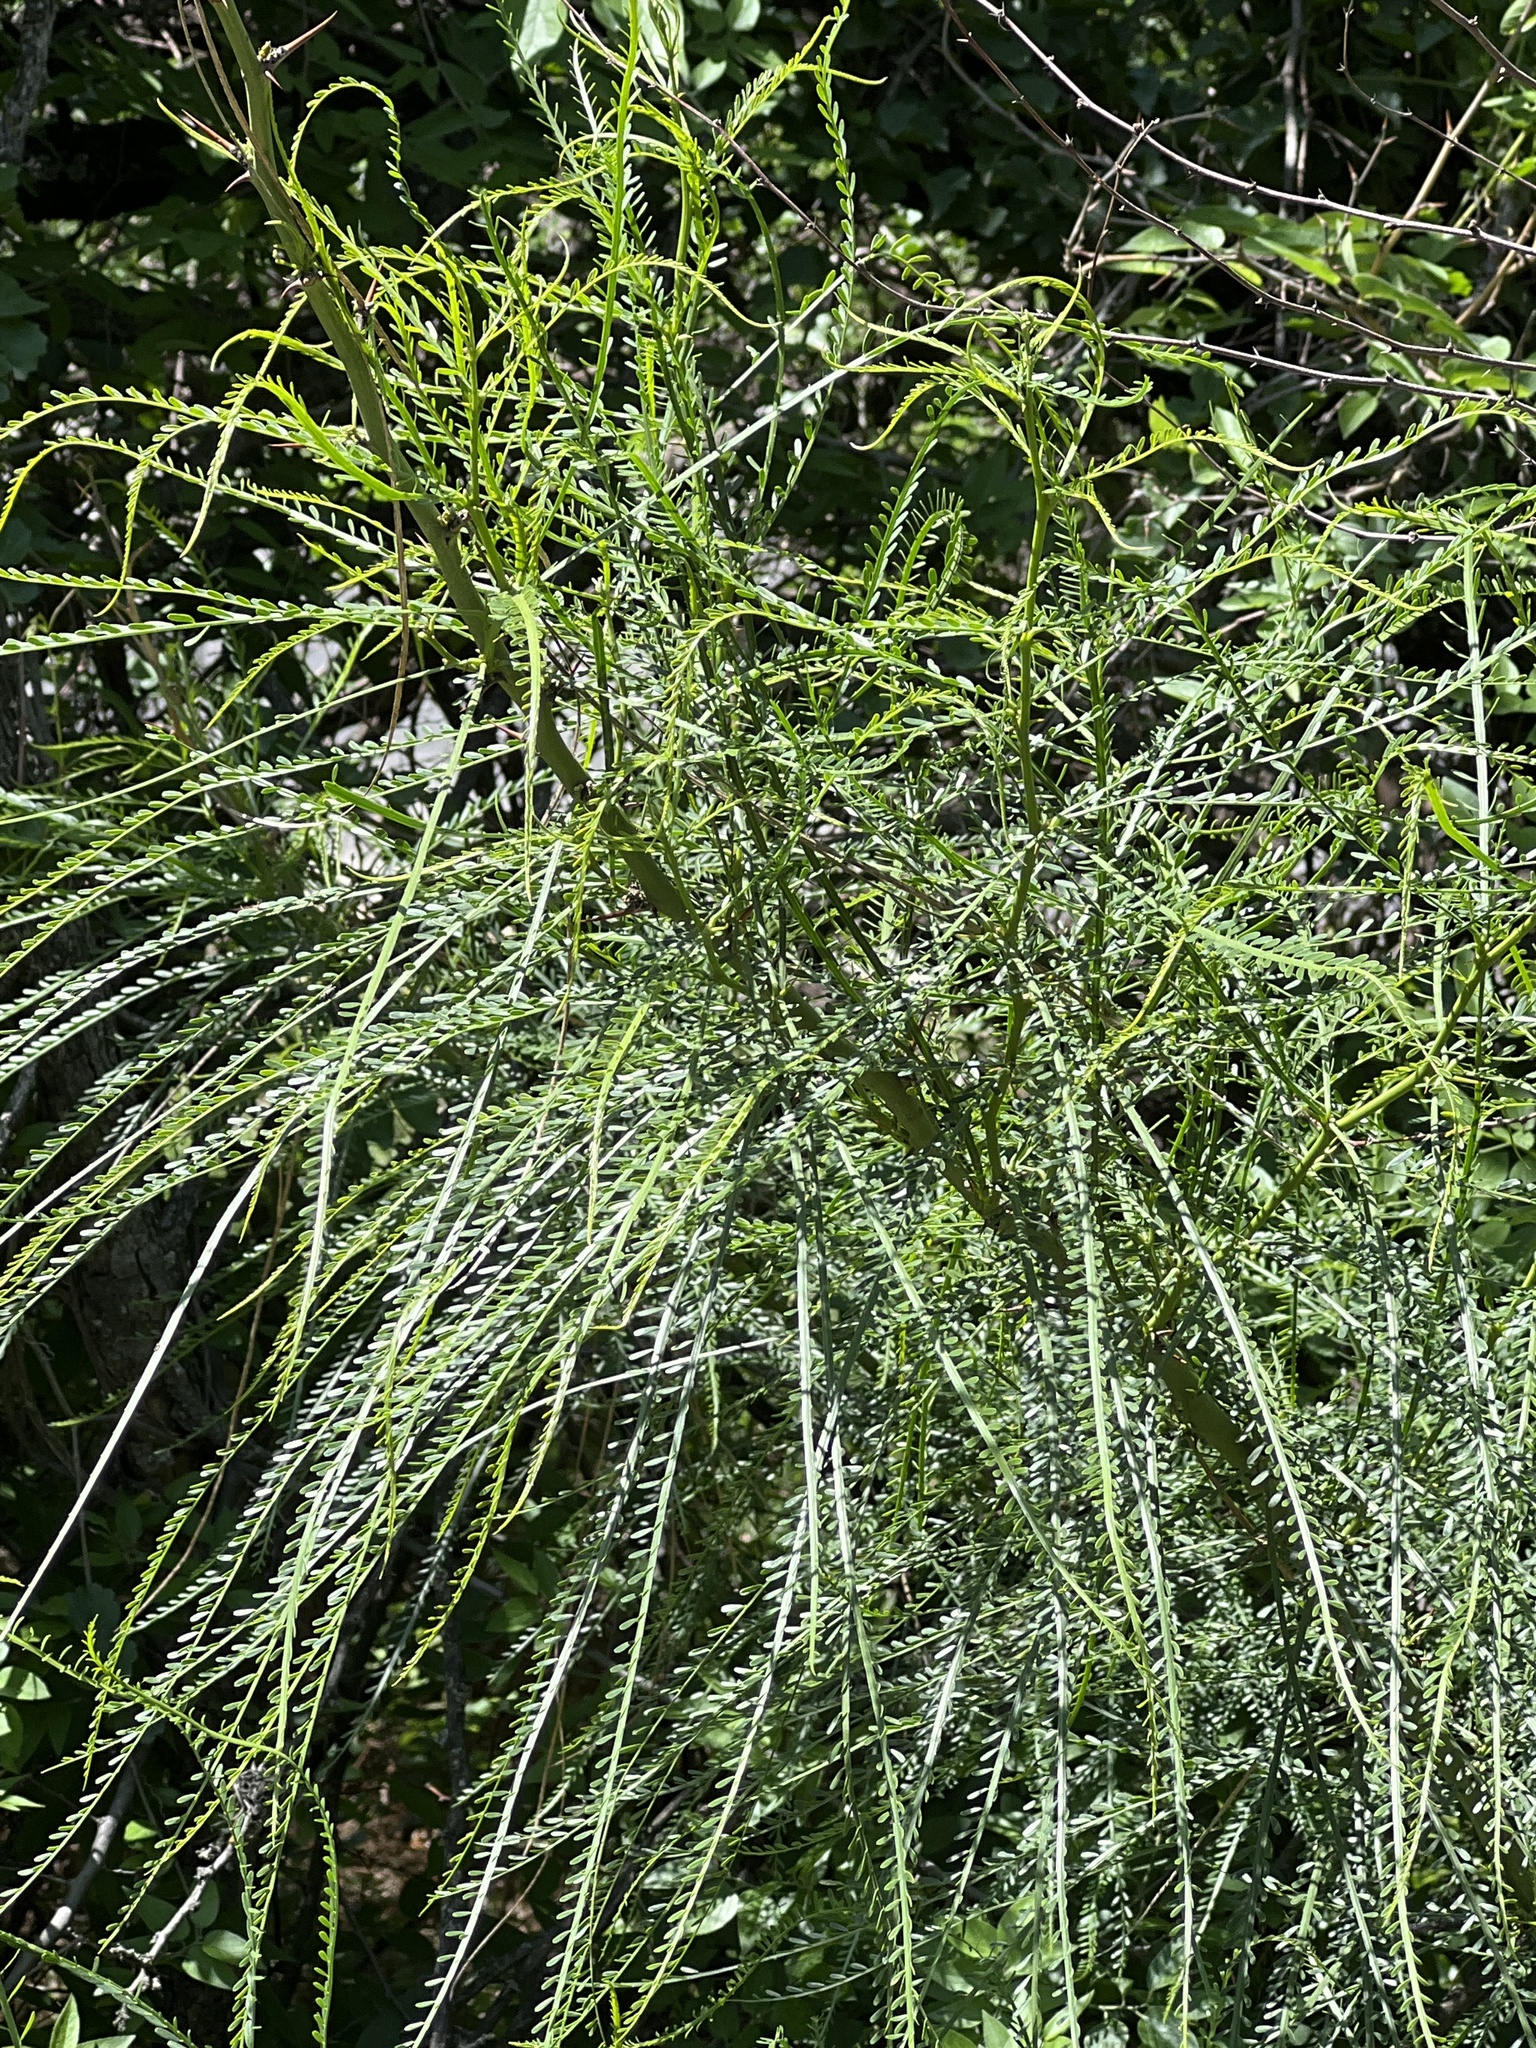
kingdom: Plantae
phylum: Tracheophyta
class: Magnoliopsida
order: Fabales
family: Fabaceae
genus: Parkinsonia
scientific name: Parkinsonia aculeata
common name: Jerusalem thorn
